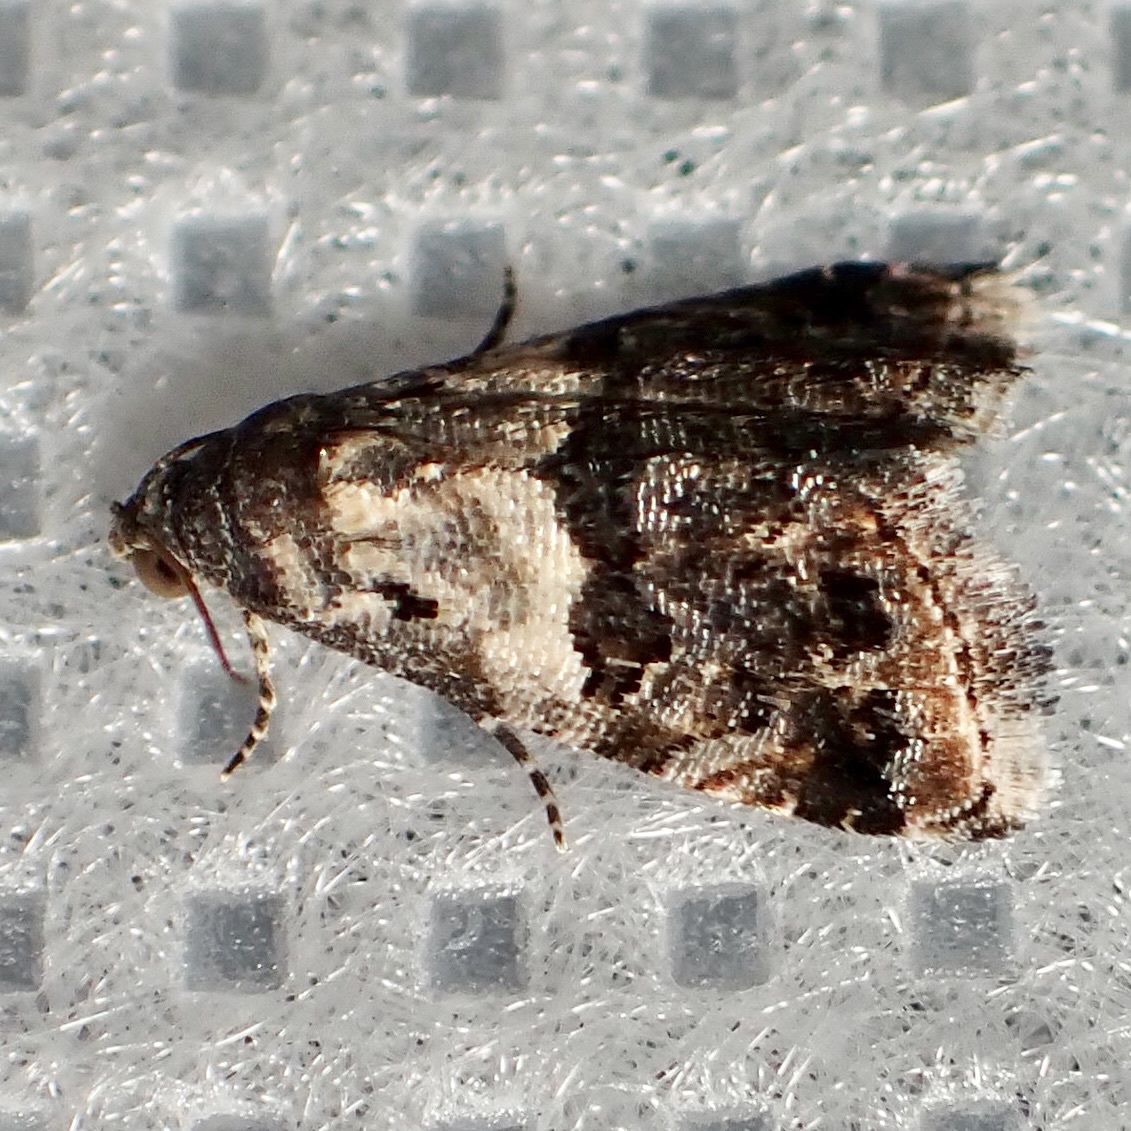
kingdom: Animalia
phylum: Arthropoda
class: Insecta
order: Lepidoptera
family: Noctuidae
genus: Tripudia
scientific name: Tripudia dimidata
